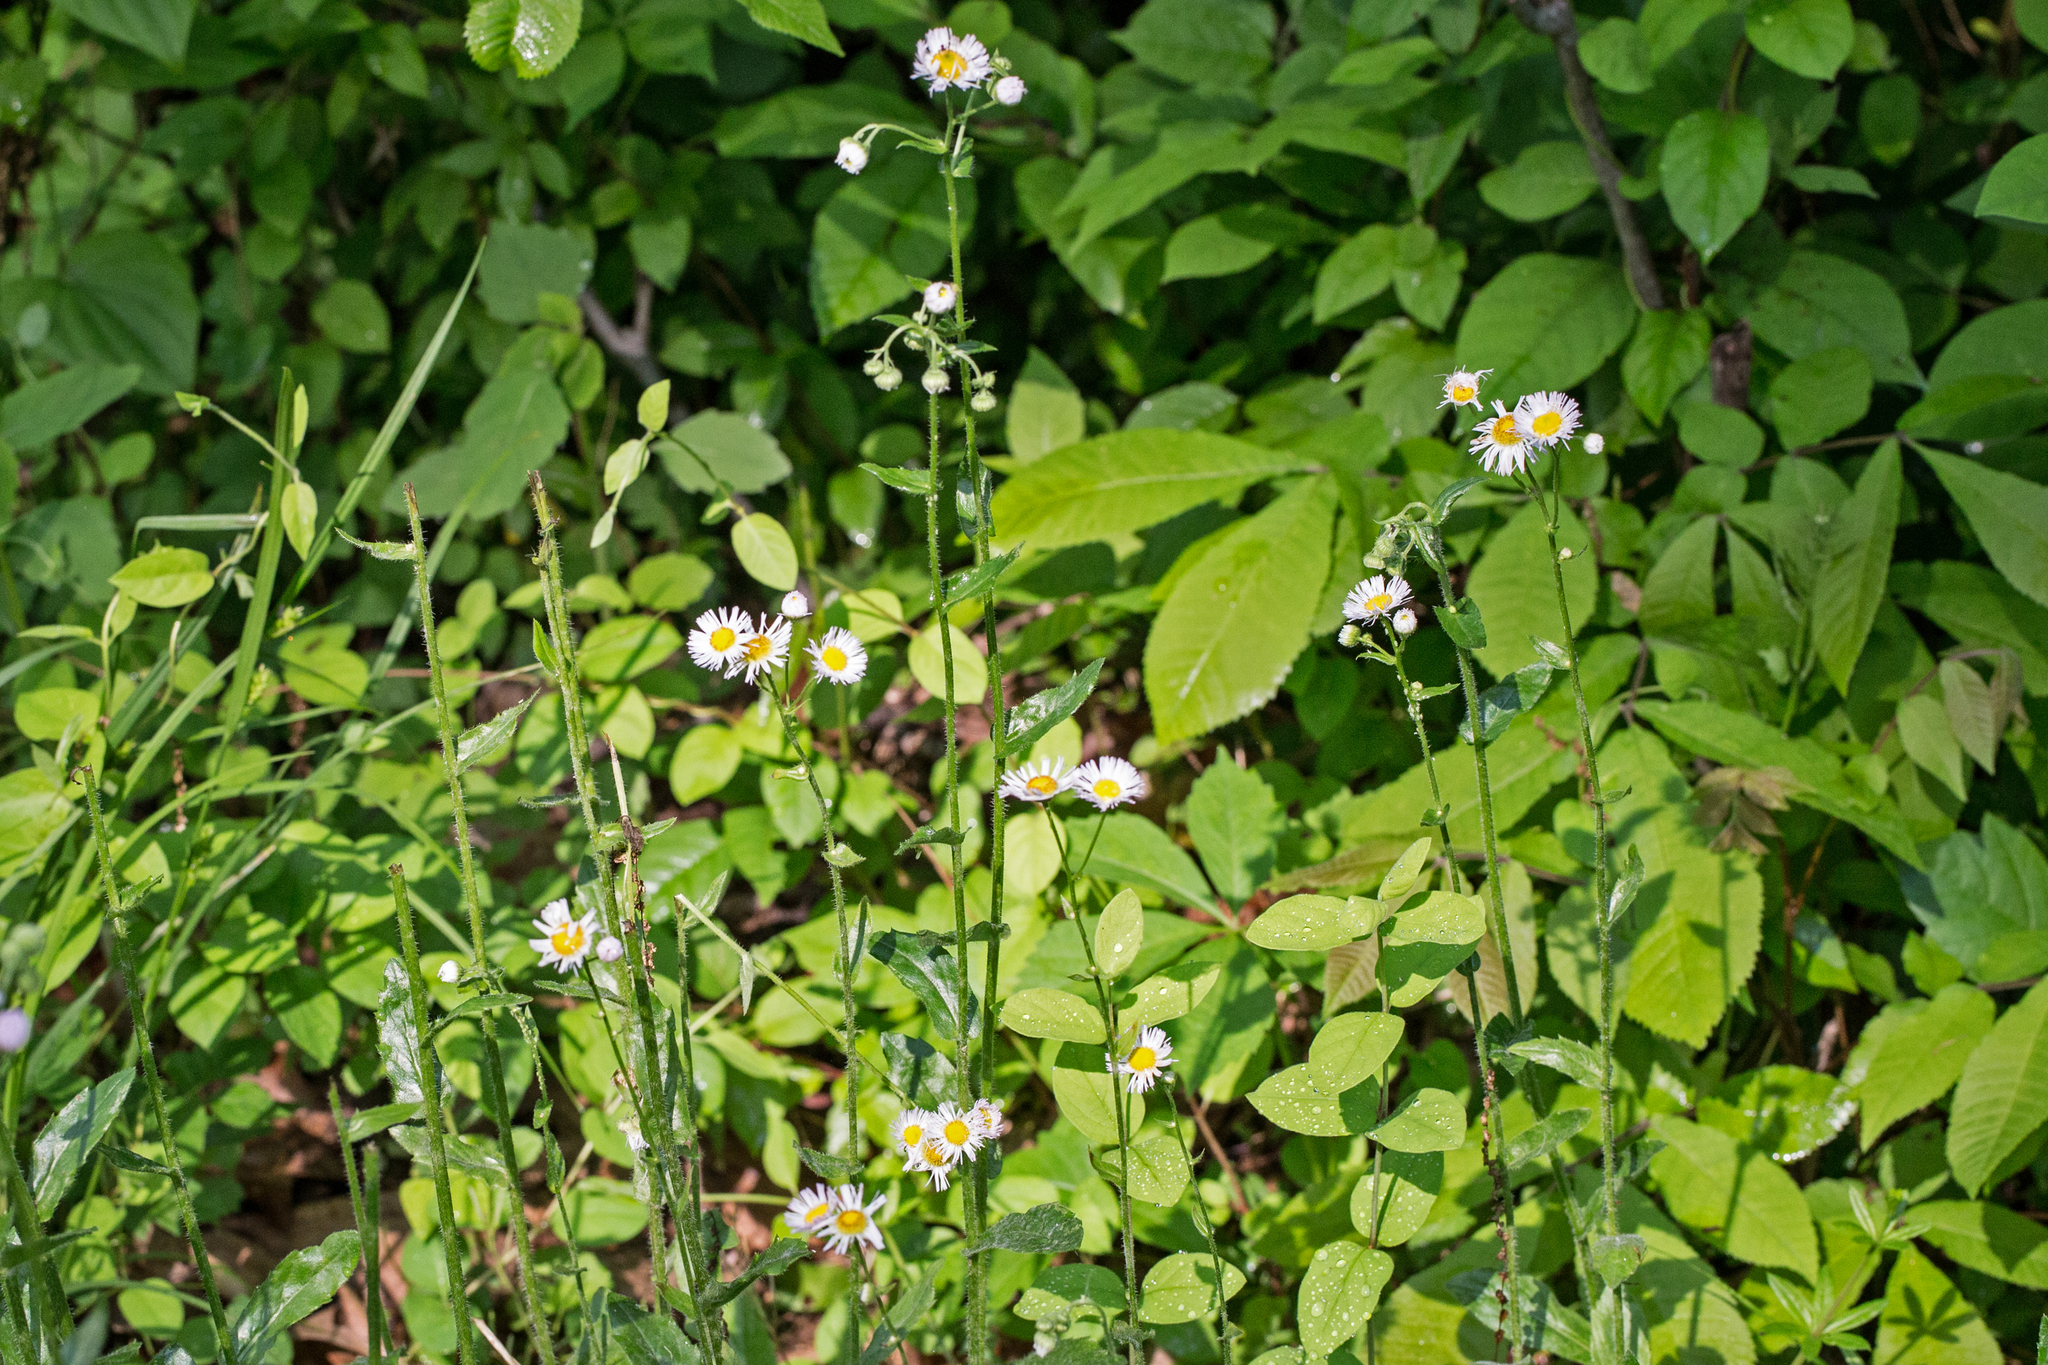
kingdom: Plantae
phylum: Tracheophyta
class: Magnoliopsida
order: Asterales
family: Asteraceae
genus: Erigeron
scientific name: Erigeron philadelphicus
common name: Robin's-plantain
